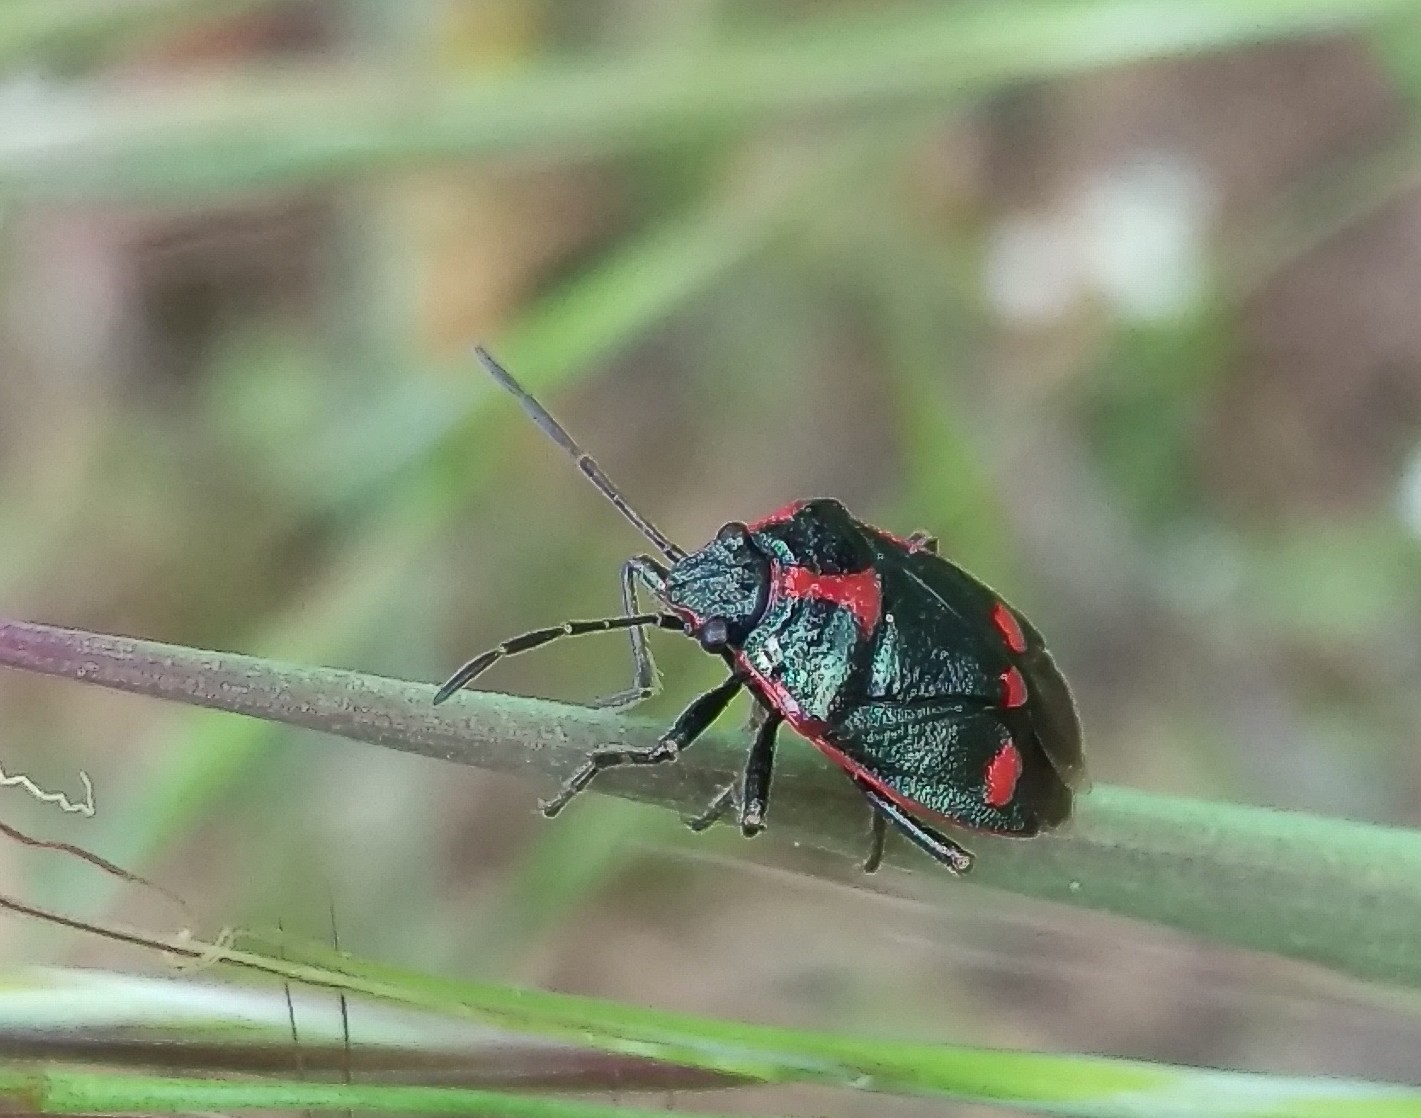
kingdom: Animalia
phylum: Arthropoda
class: Insecta
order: Hemiptera
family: Pentatomidae
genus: Eurydema
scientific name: Eurydema oleracea
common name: Cabbage bug
